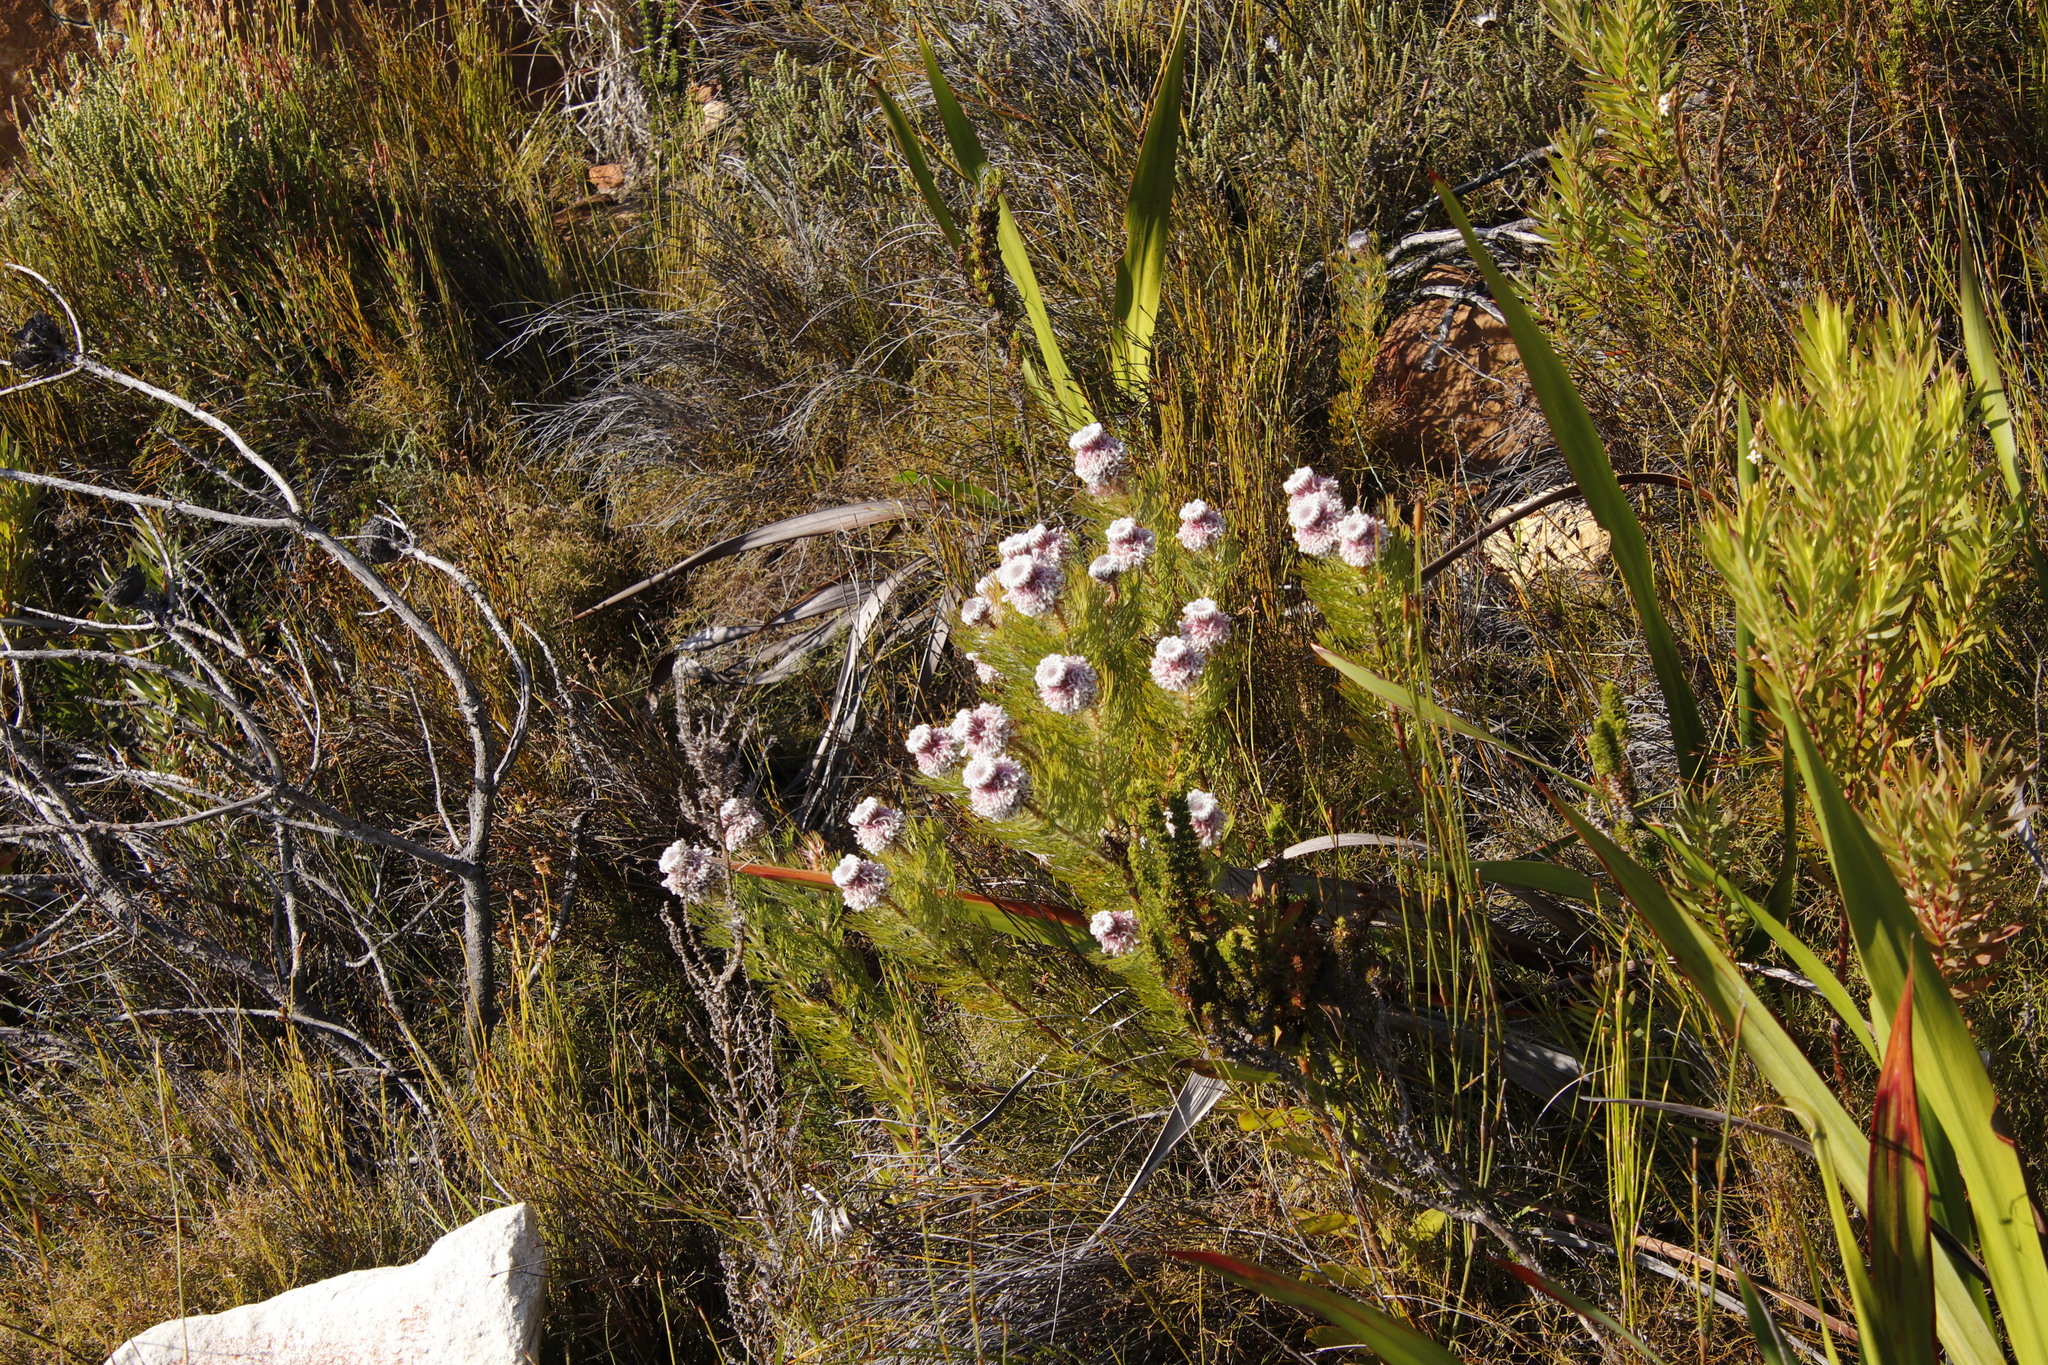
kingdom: Plantae
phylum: Tracheophyta
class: Magnoliopsida
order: Proteales
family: Proteaceae
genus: Serruria
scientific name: Serruria hirsuta
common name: Swartkops spiderhead
